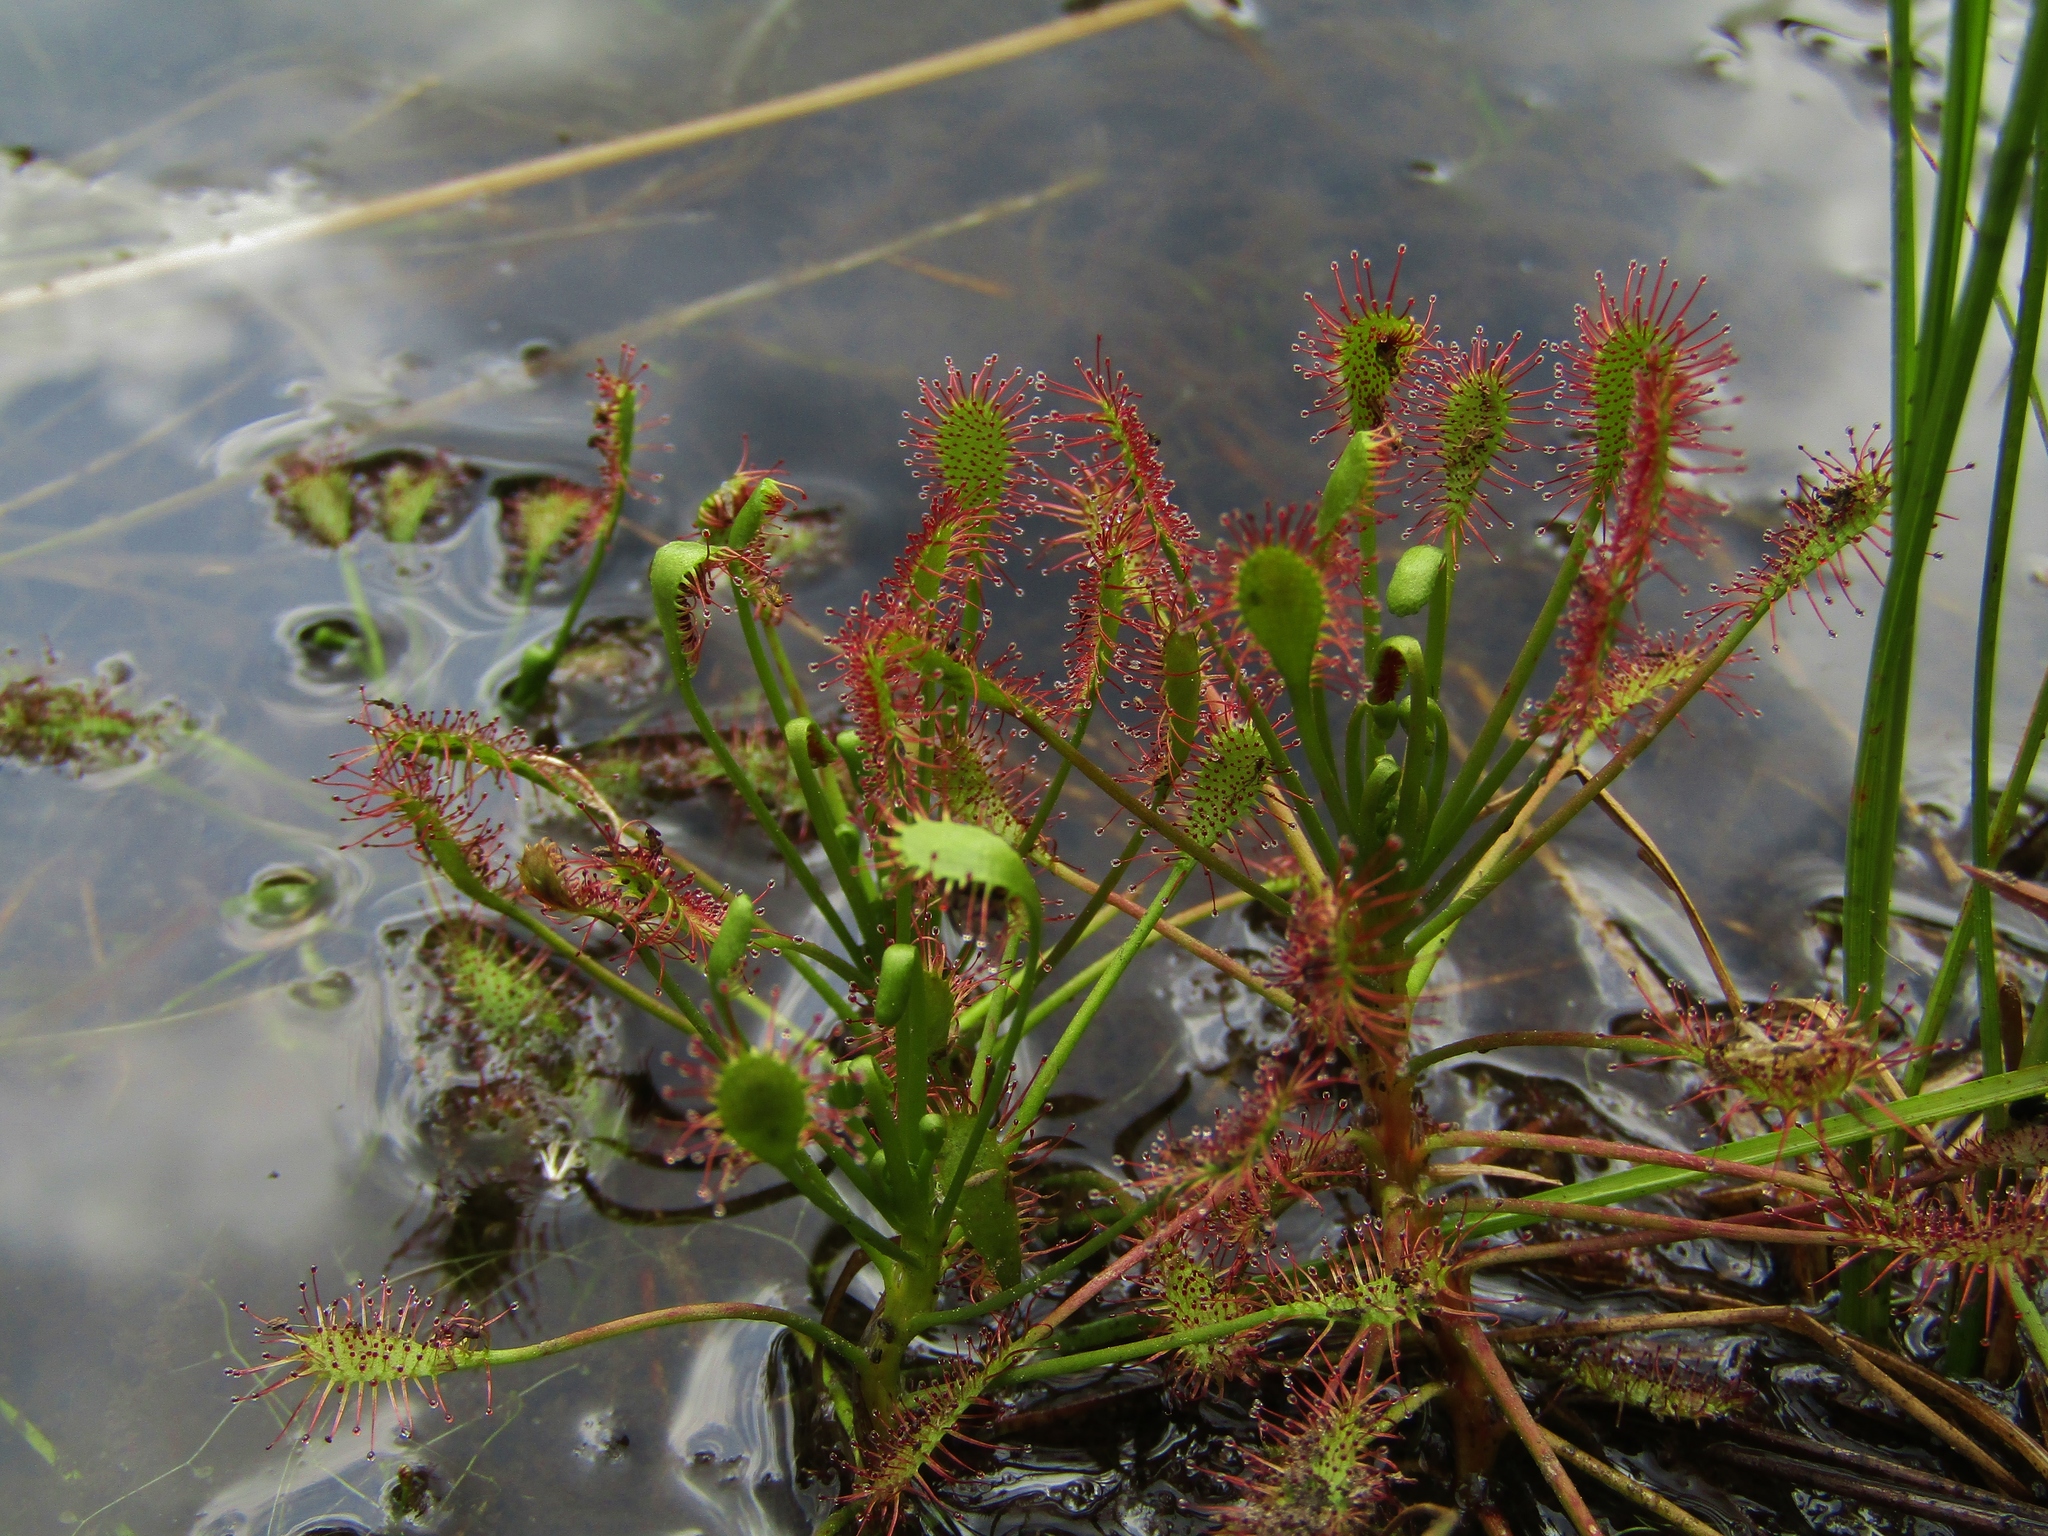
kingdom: Plantae
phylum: Tracheophyta
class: Magnoliopsida
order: Caryophyllales
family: Droseraceae
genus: Drosera
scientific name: Drosera intermedia
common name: Oblong-leaved sundew
